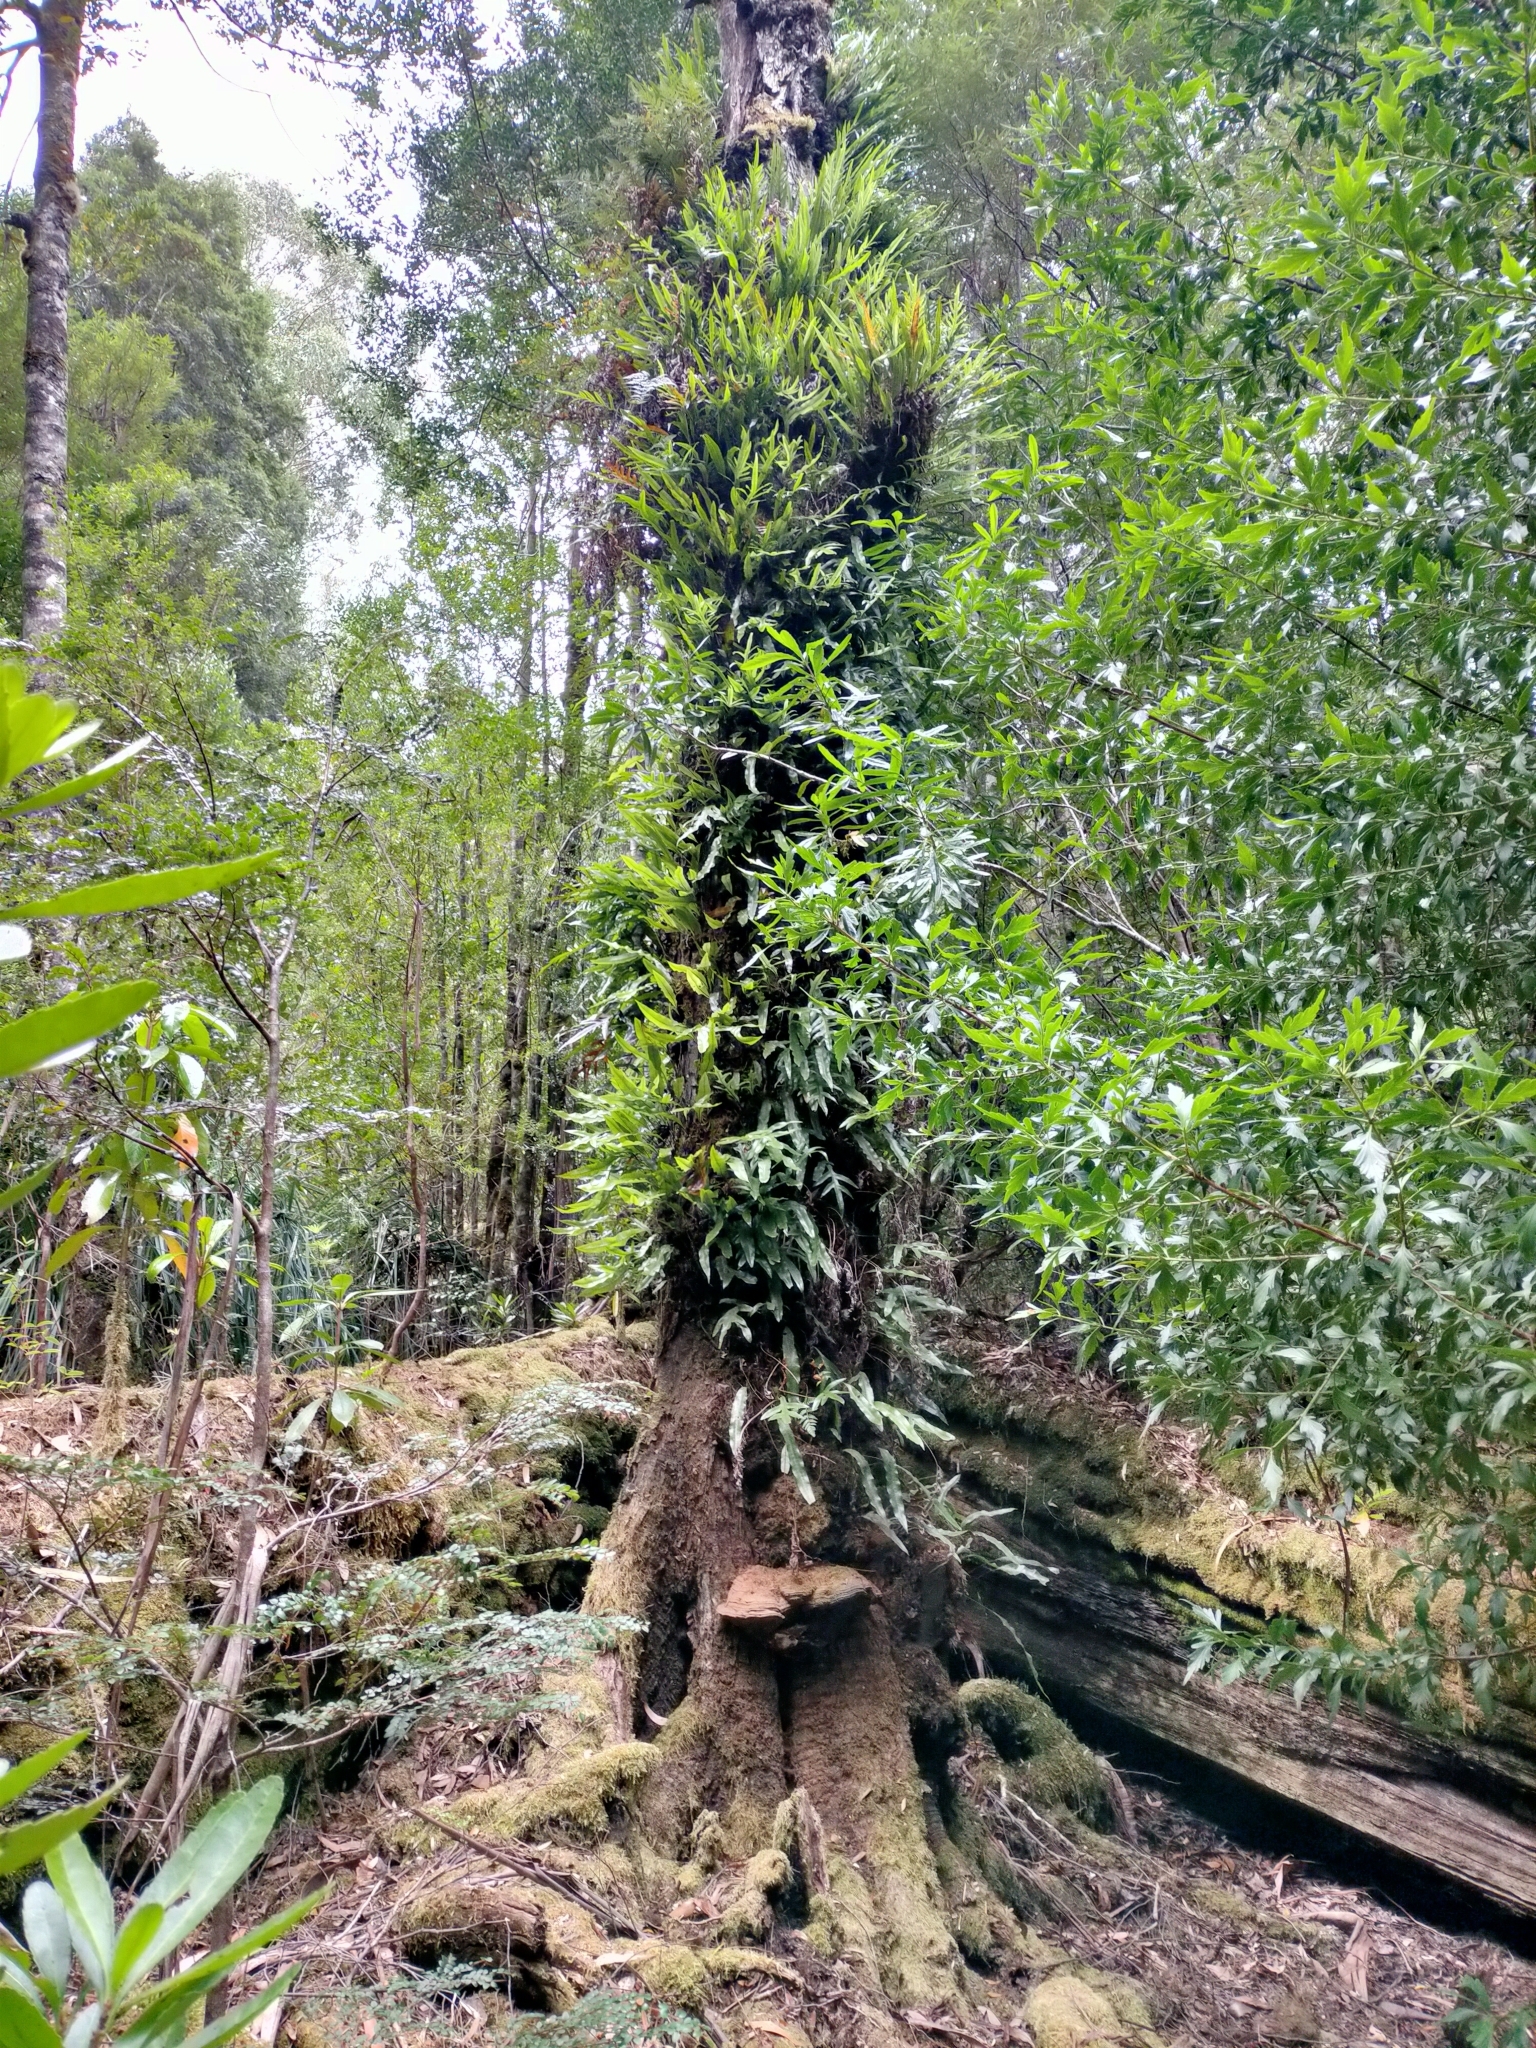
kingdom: Plantae
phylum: Tracheophyta
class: Polypodiopsida
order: Polypodiales
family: Polypodiaceae
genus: Lecanopteris
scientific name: Lecanopteris pustulata
